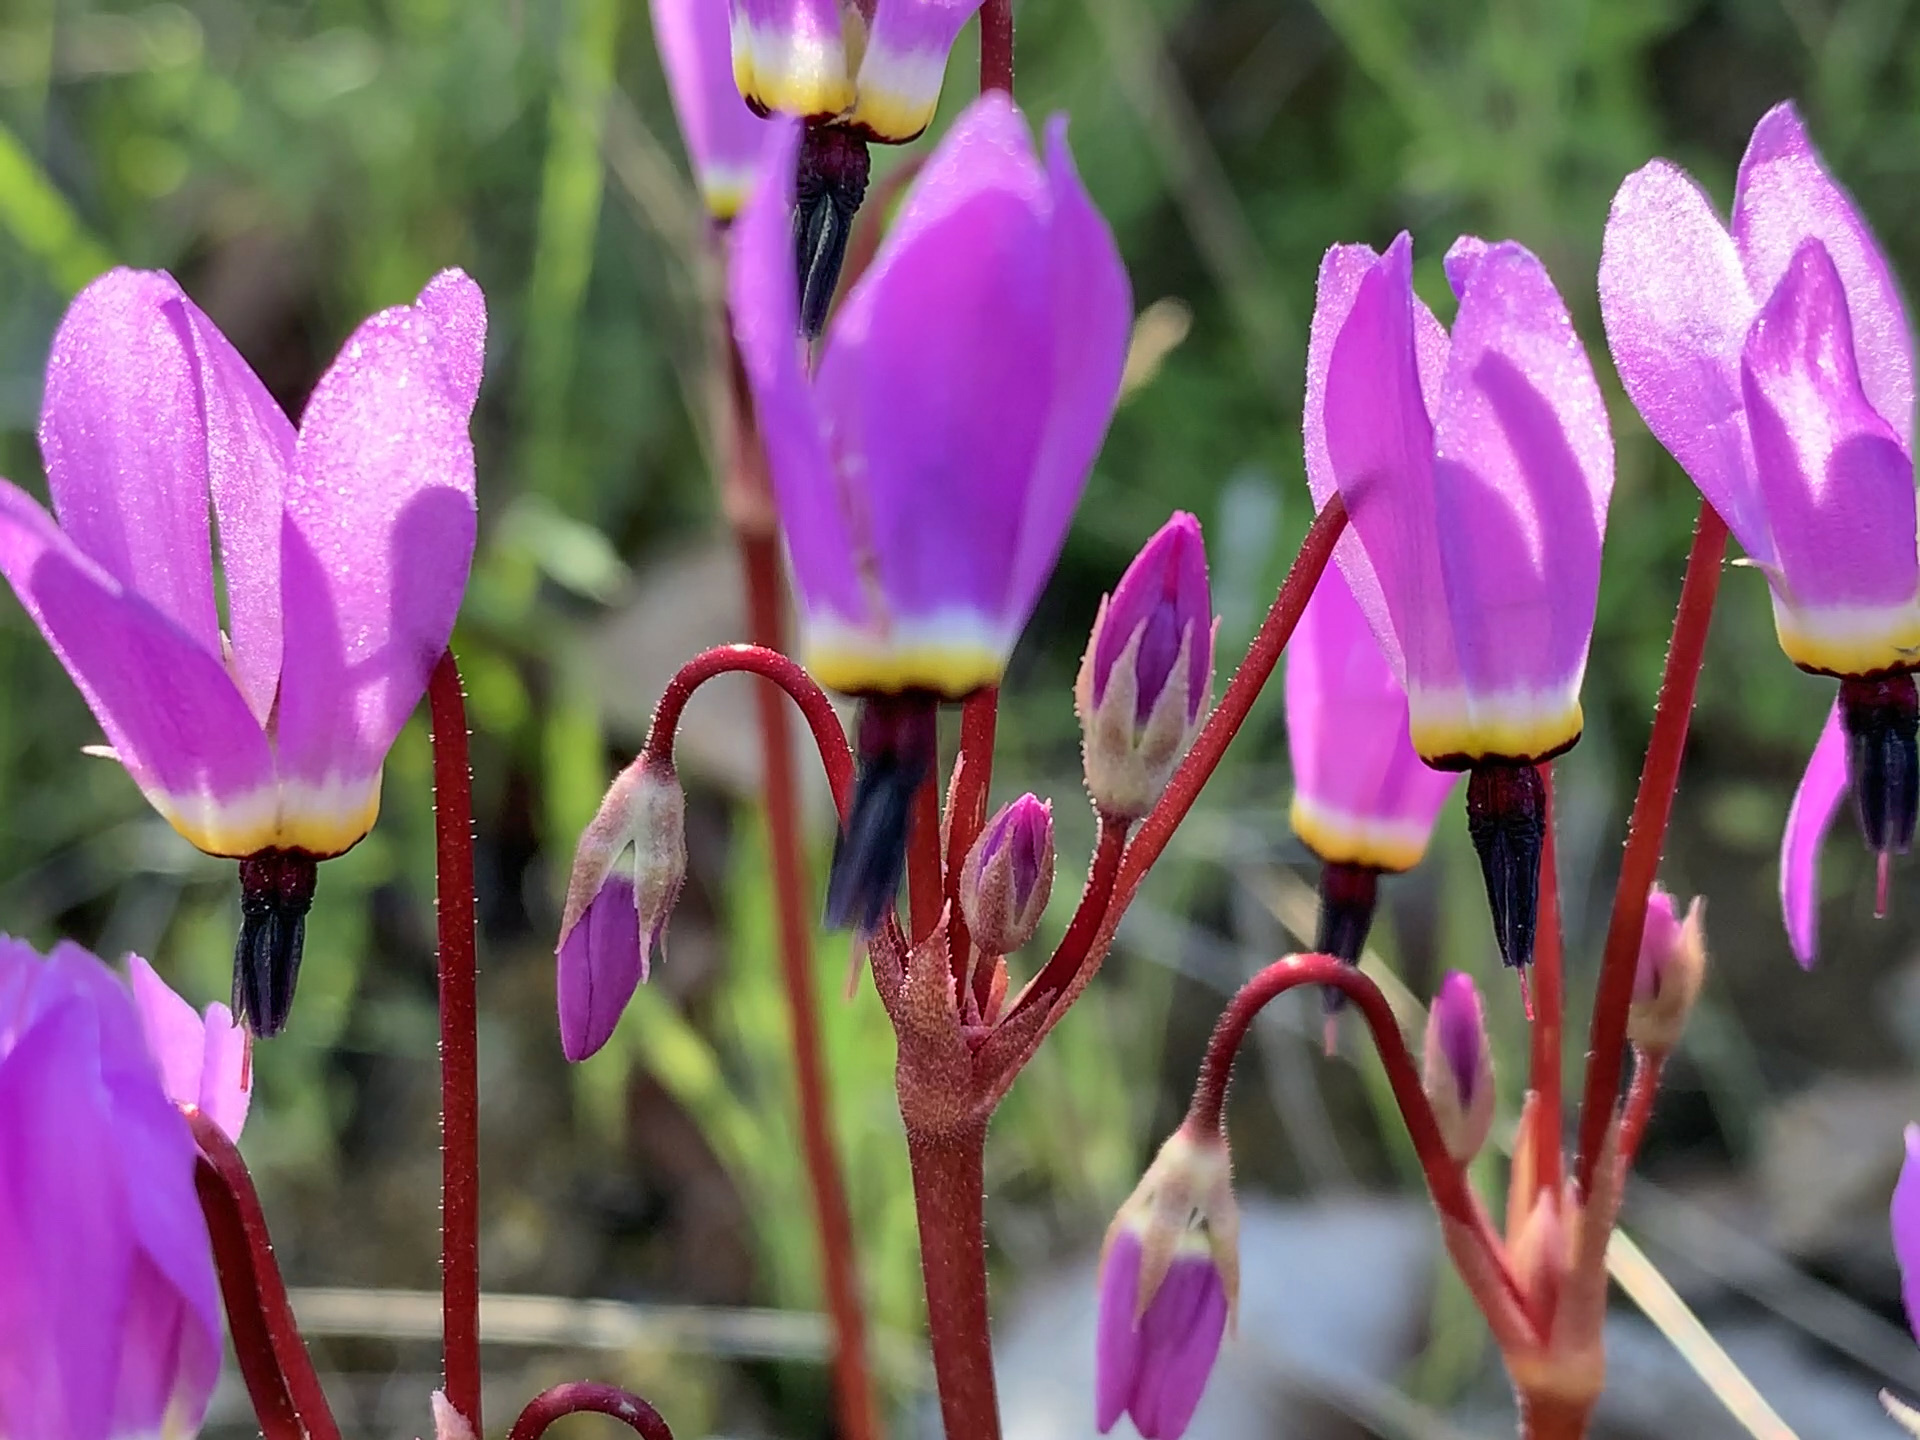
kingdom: Plantae
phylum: Tracheophyta
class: Magnoliopsida
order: Ericales
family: Primulaceae
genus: Dodecatheon
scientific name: Dodecatheon hendersonii
